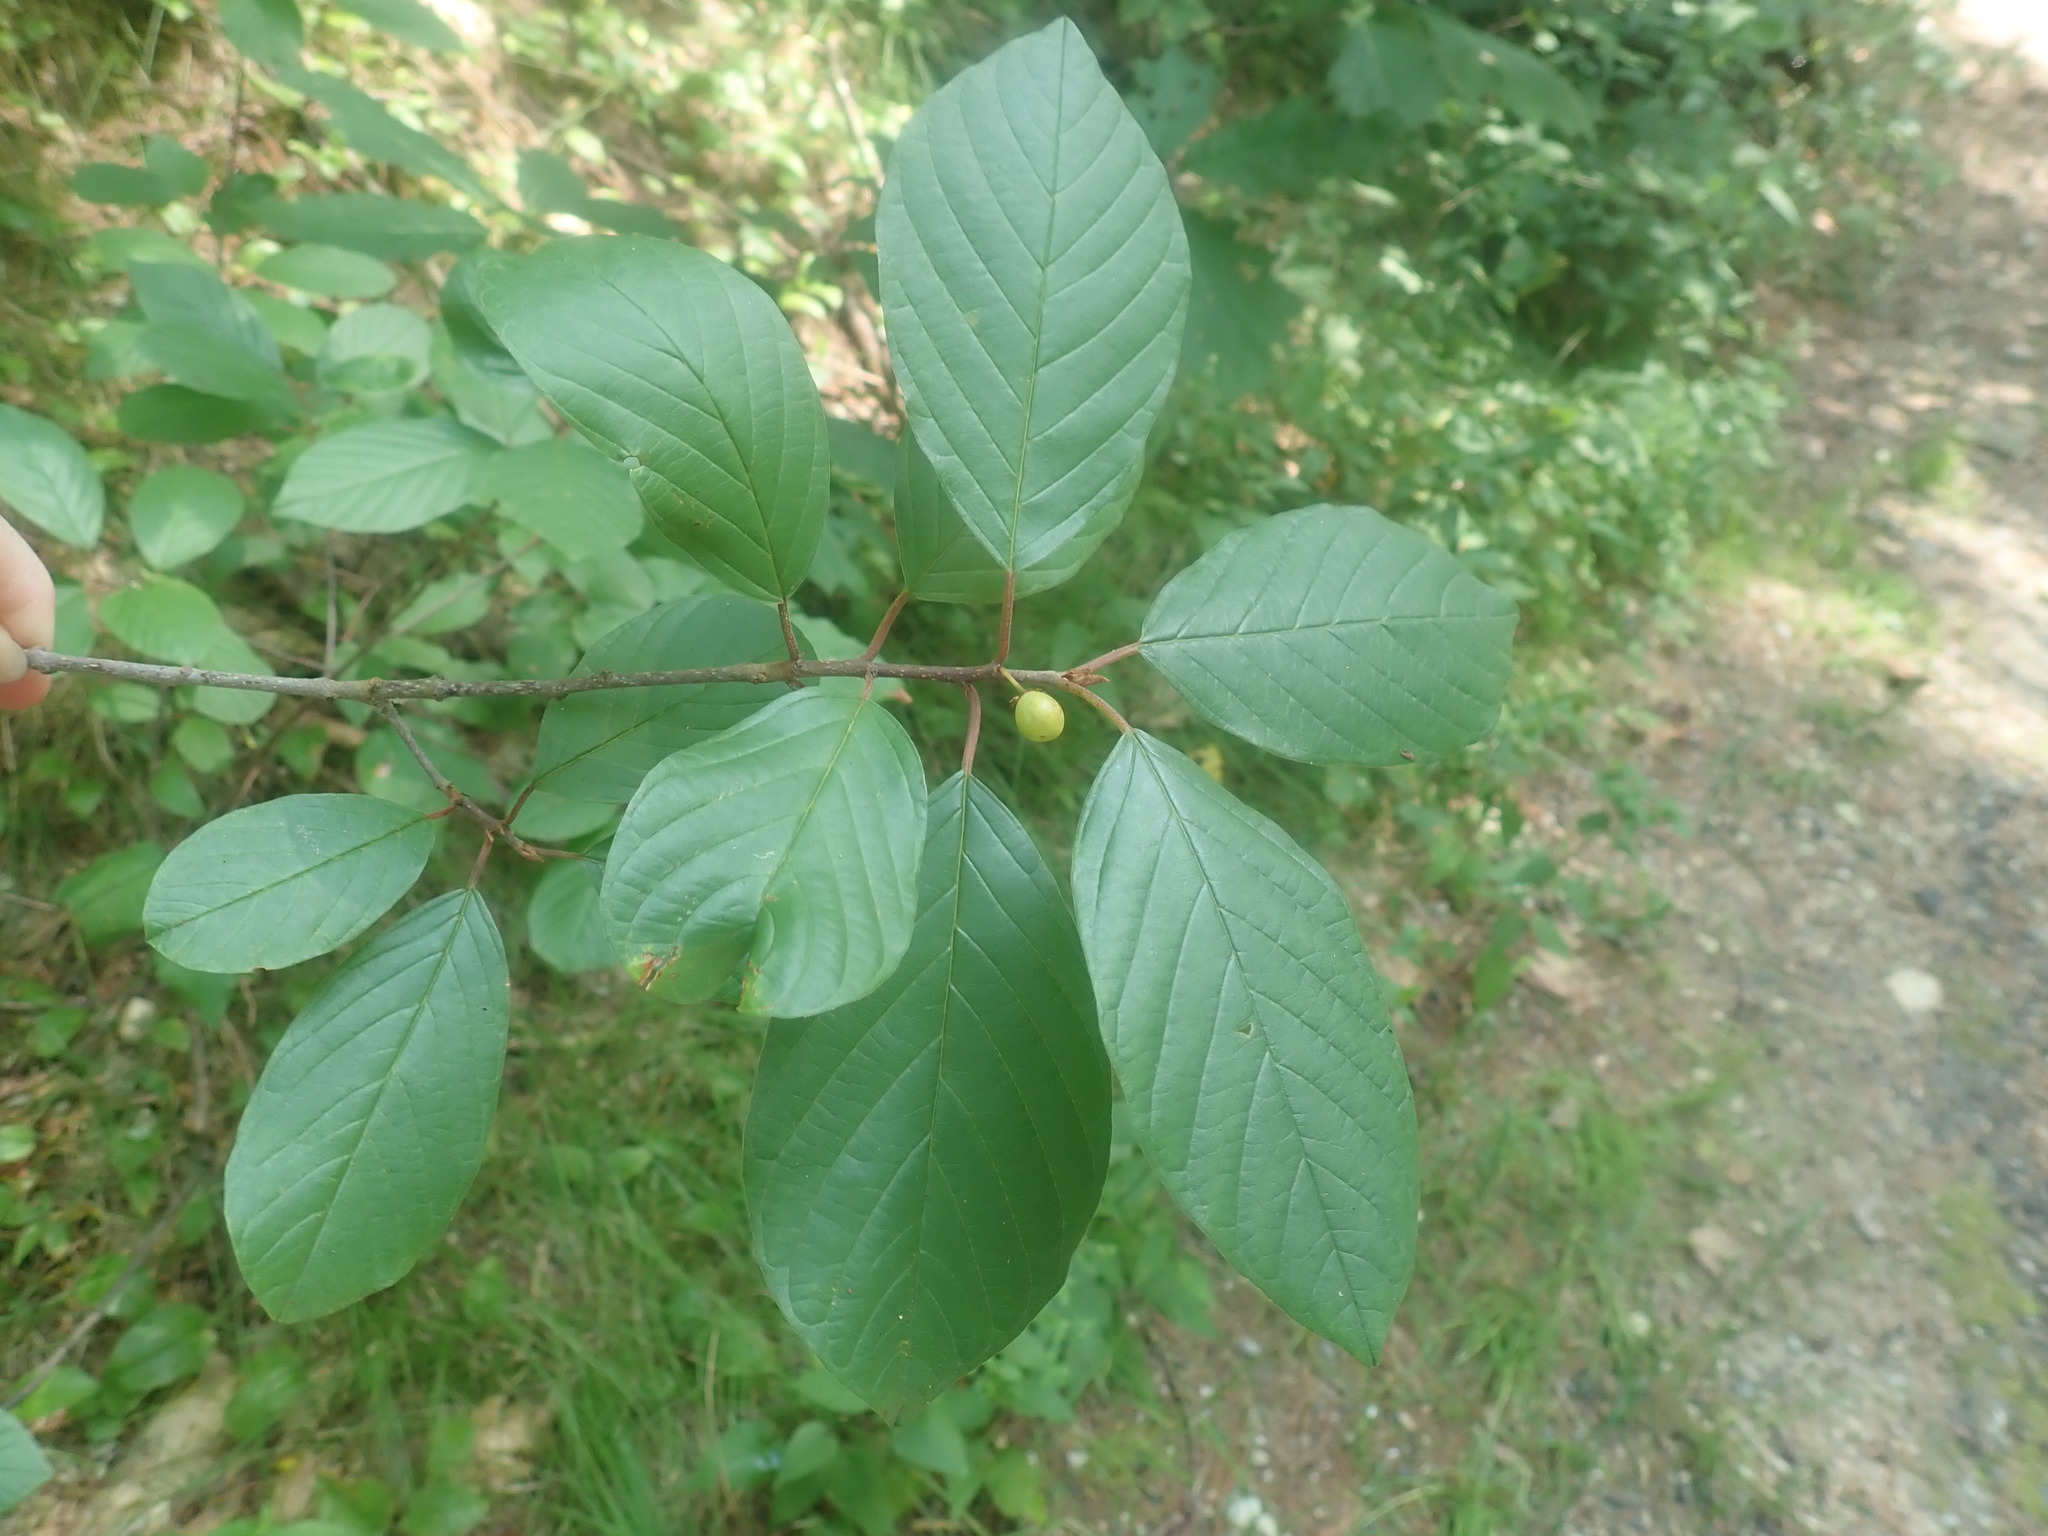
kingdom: Plantae
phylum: Tracheophyta
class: Magnoliopsida
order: Rosales
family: Rhamnaceae
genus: Frangula
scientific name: Frangula alnus
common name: Alder buckthorn
